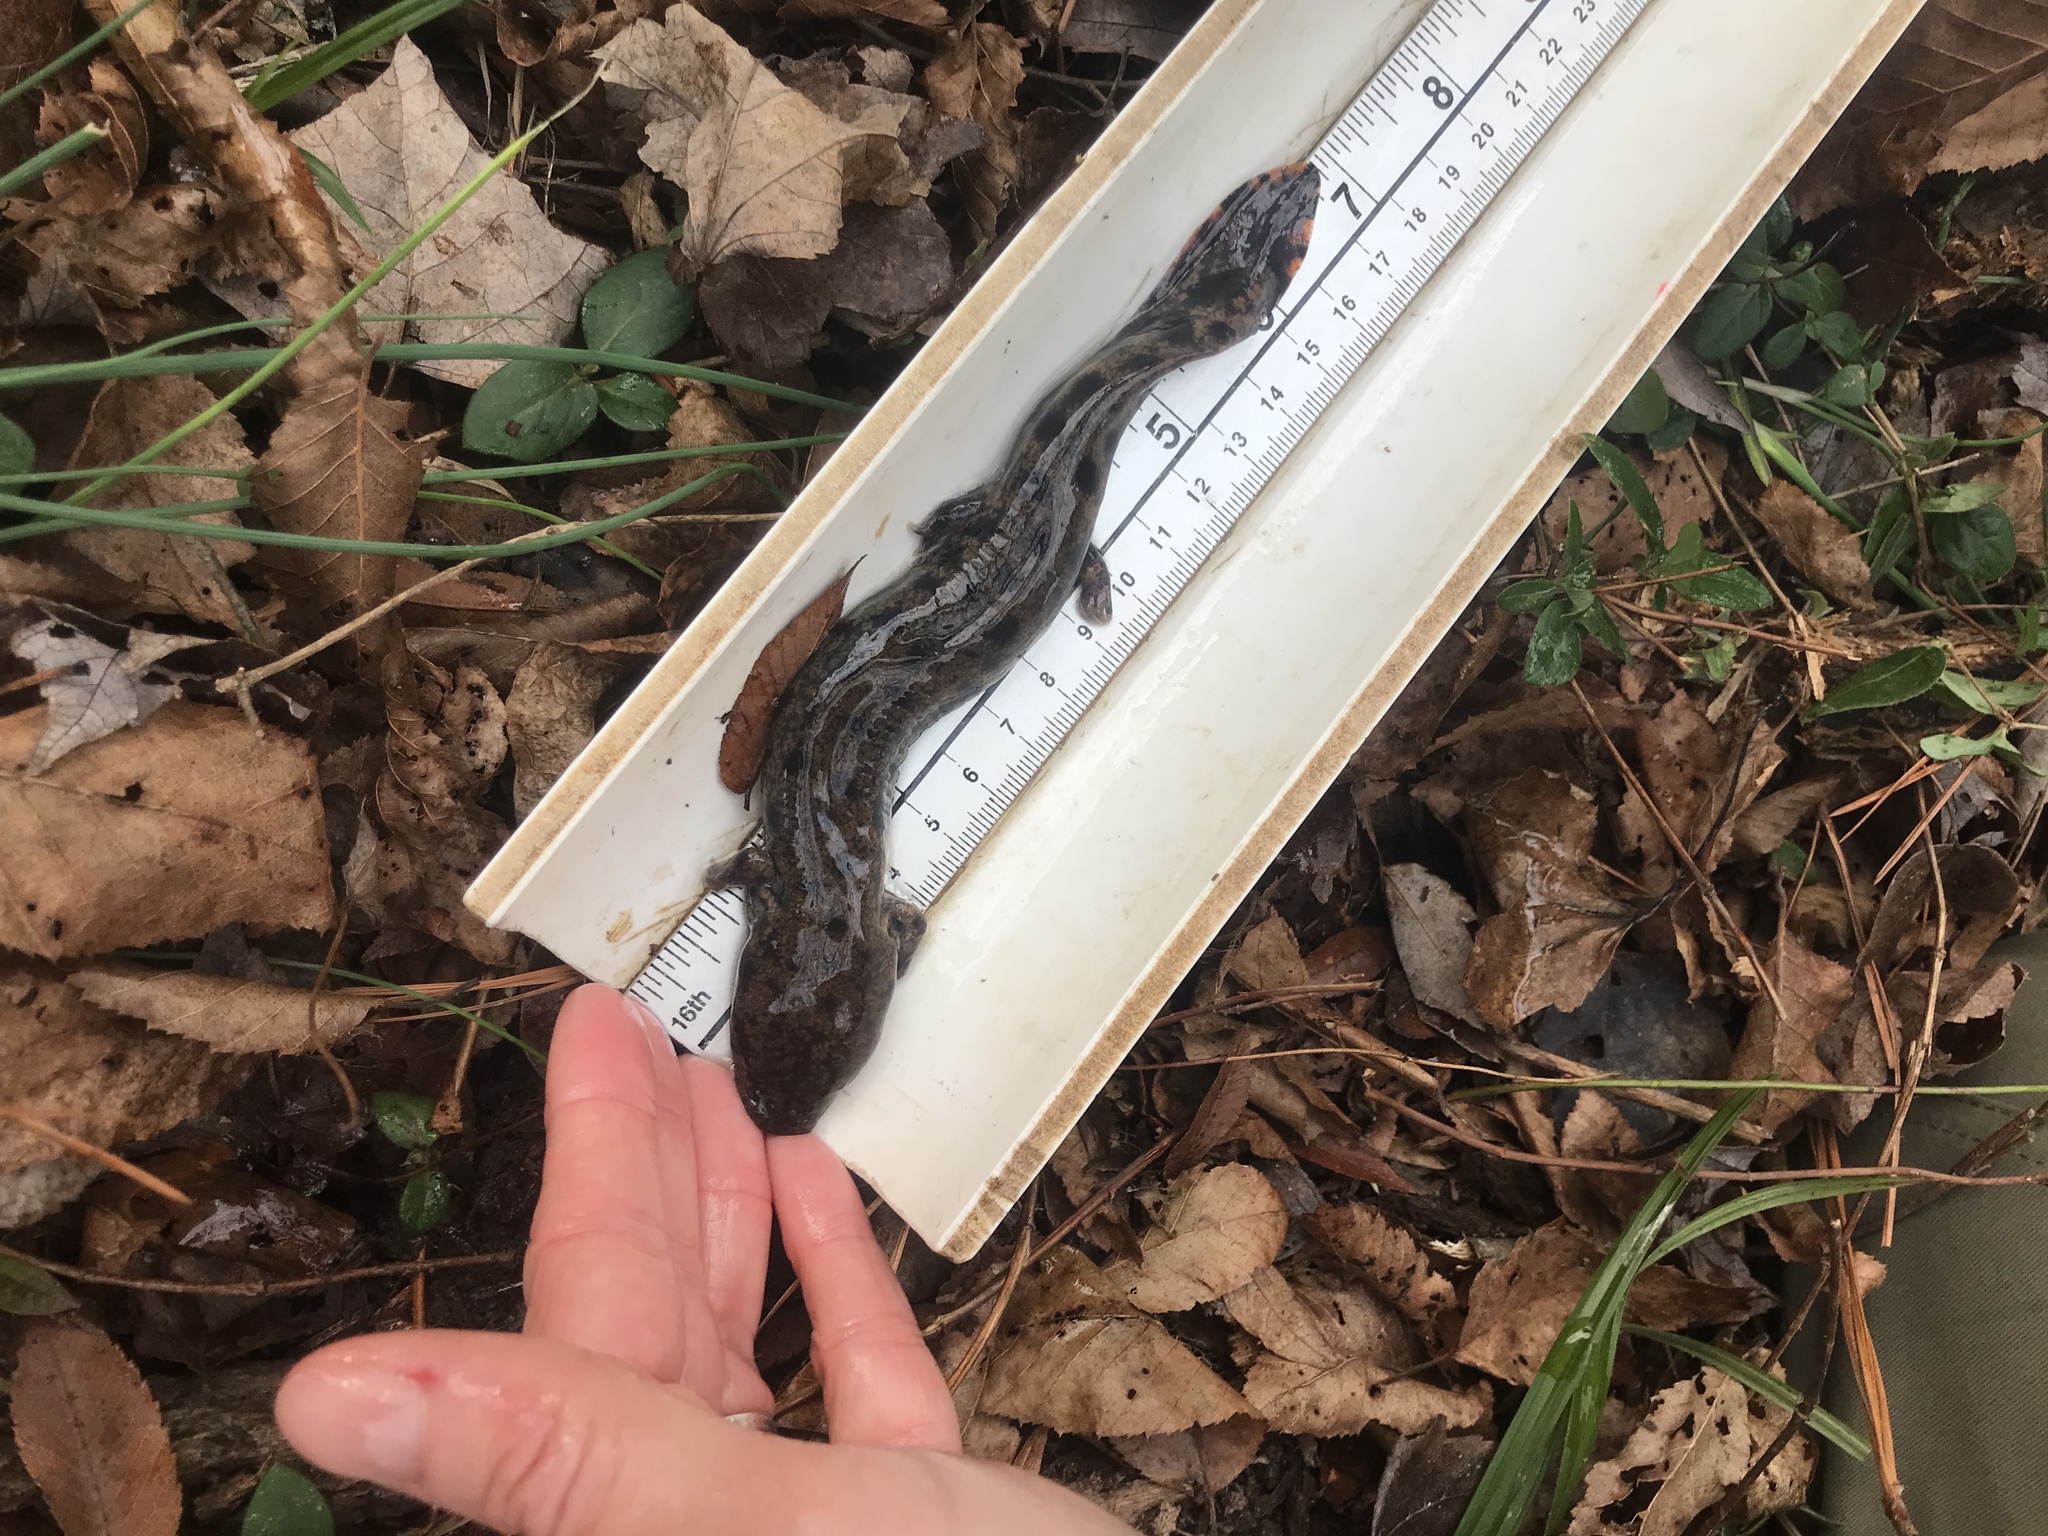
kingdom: Animalia
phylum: Chordata
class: Amphibia
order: Caudata
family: Proteidae
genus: Necturus
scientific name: Necturus lewisi
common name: Neuse river waterdog
